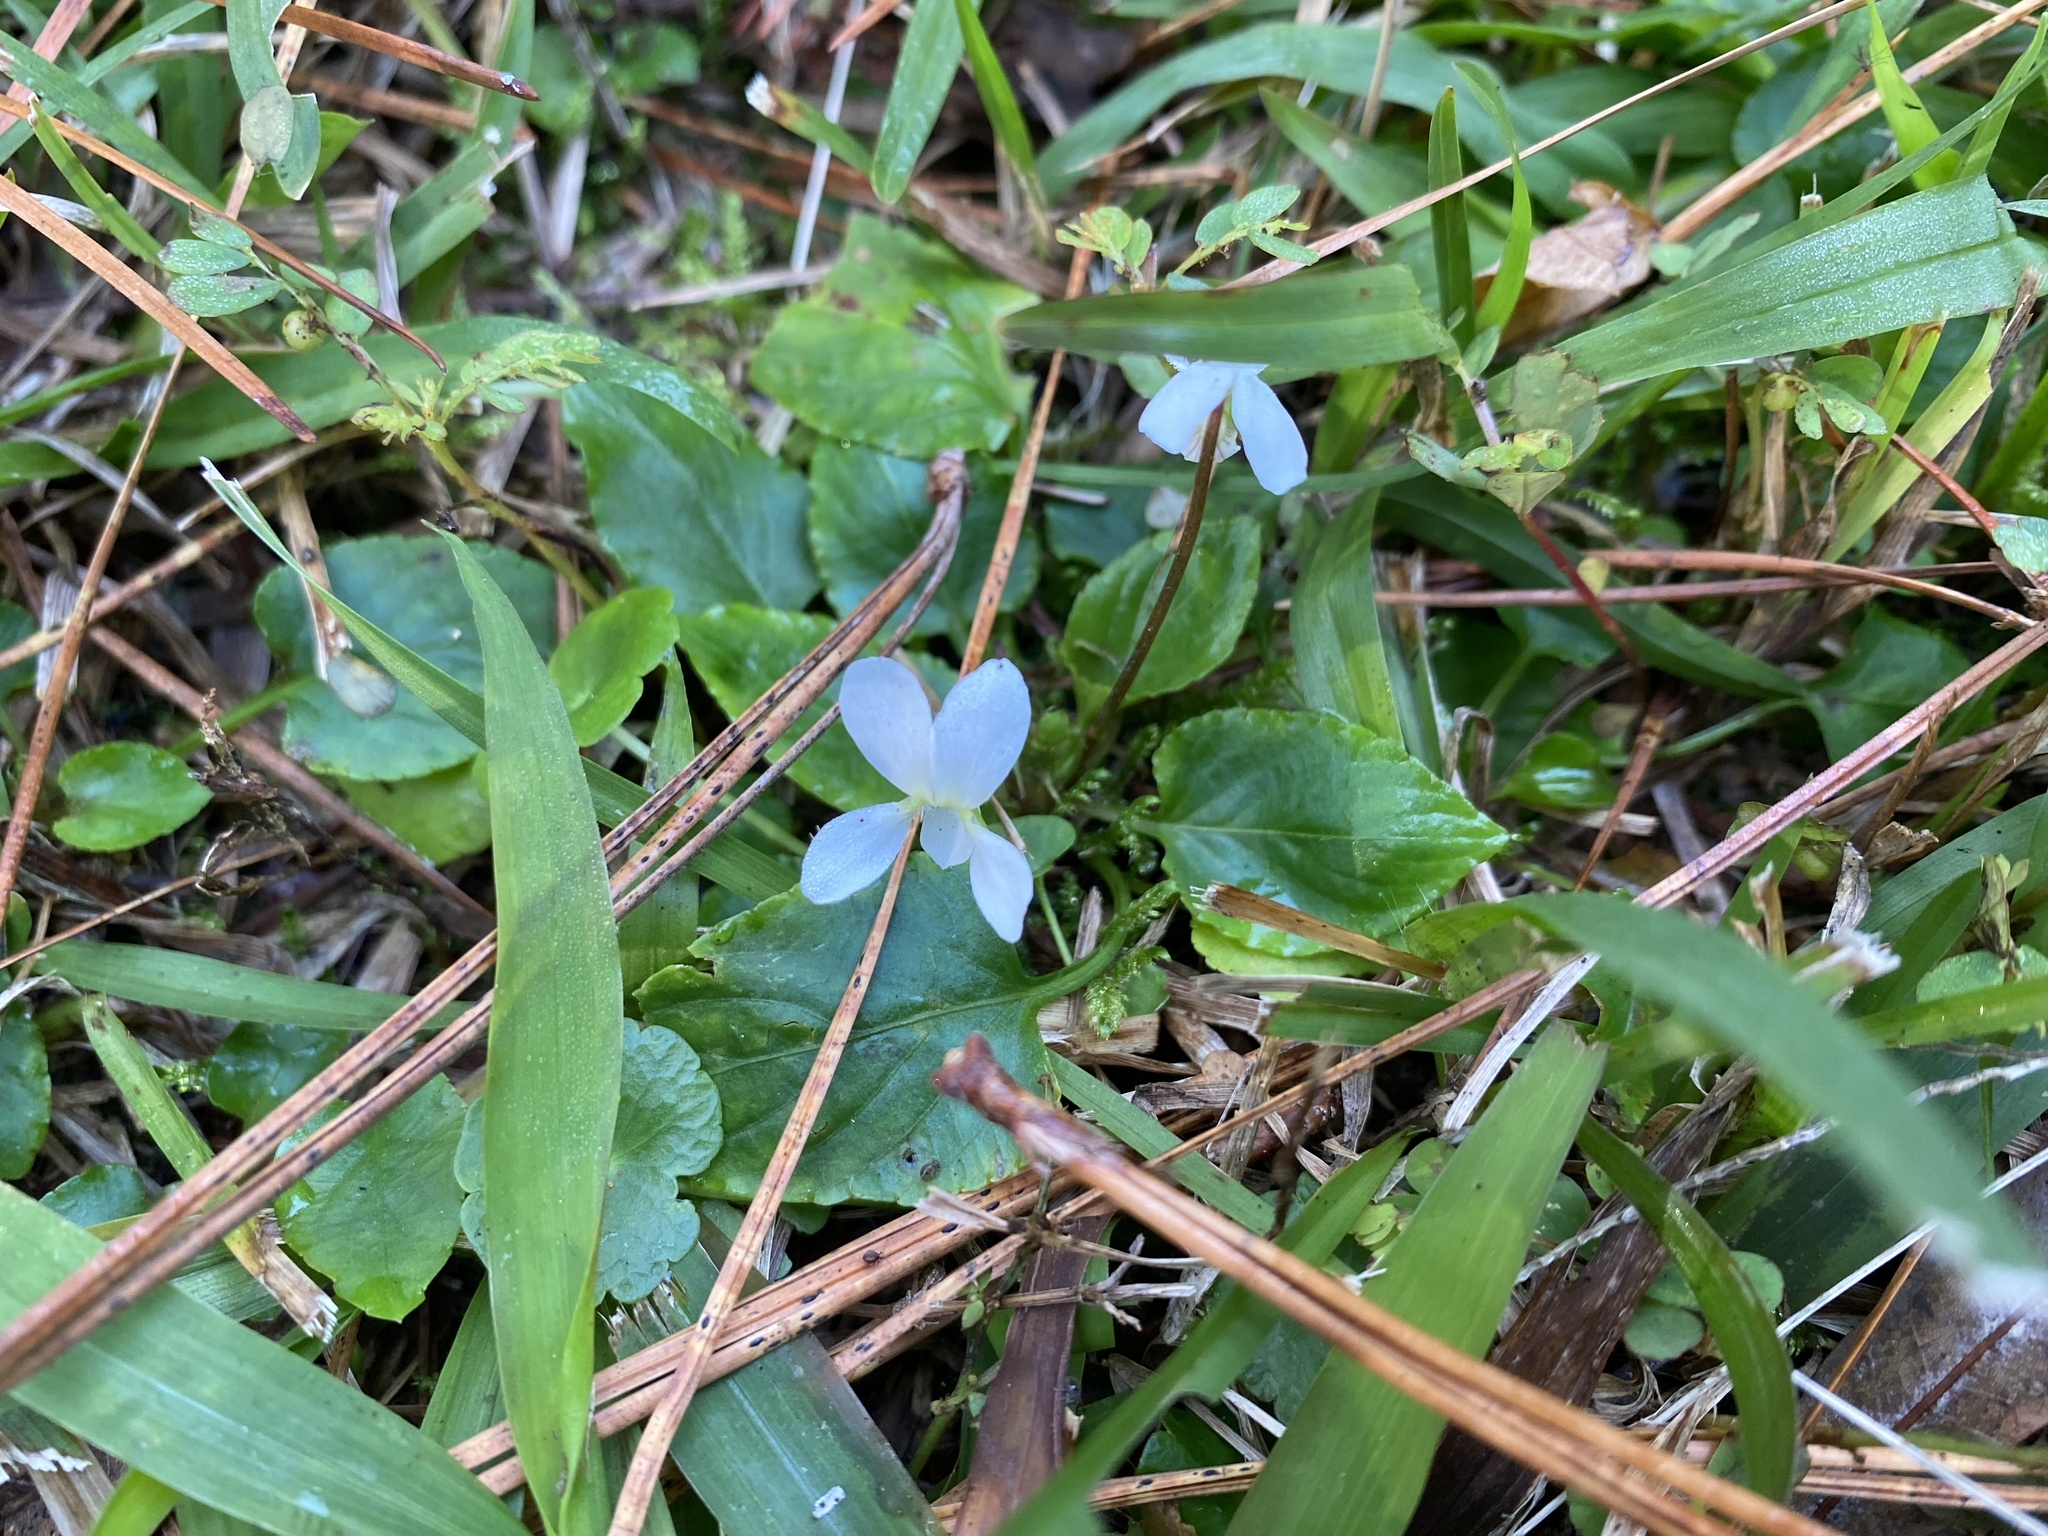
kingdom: Plantae
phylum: Tracheophyta
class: Magnoliopsida
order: Malpighiales
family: Violaceae
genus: Viola
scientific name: Viola primulifolia
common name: Primrose-leaf violet
